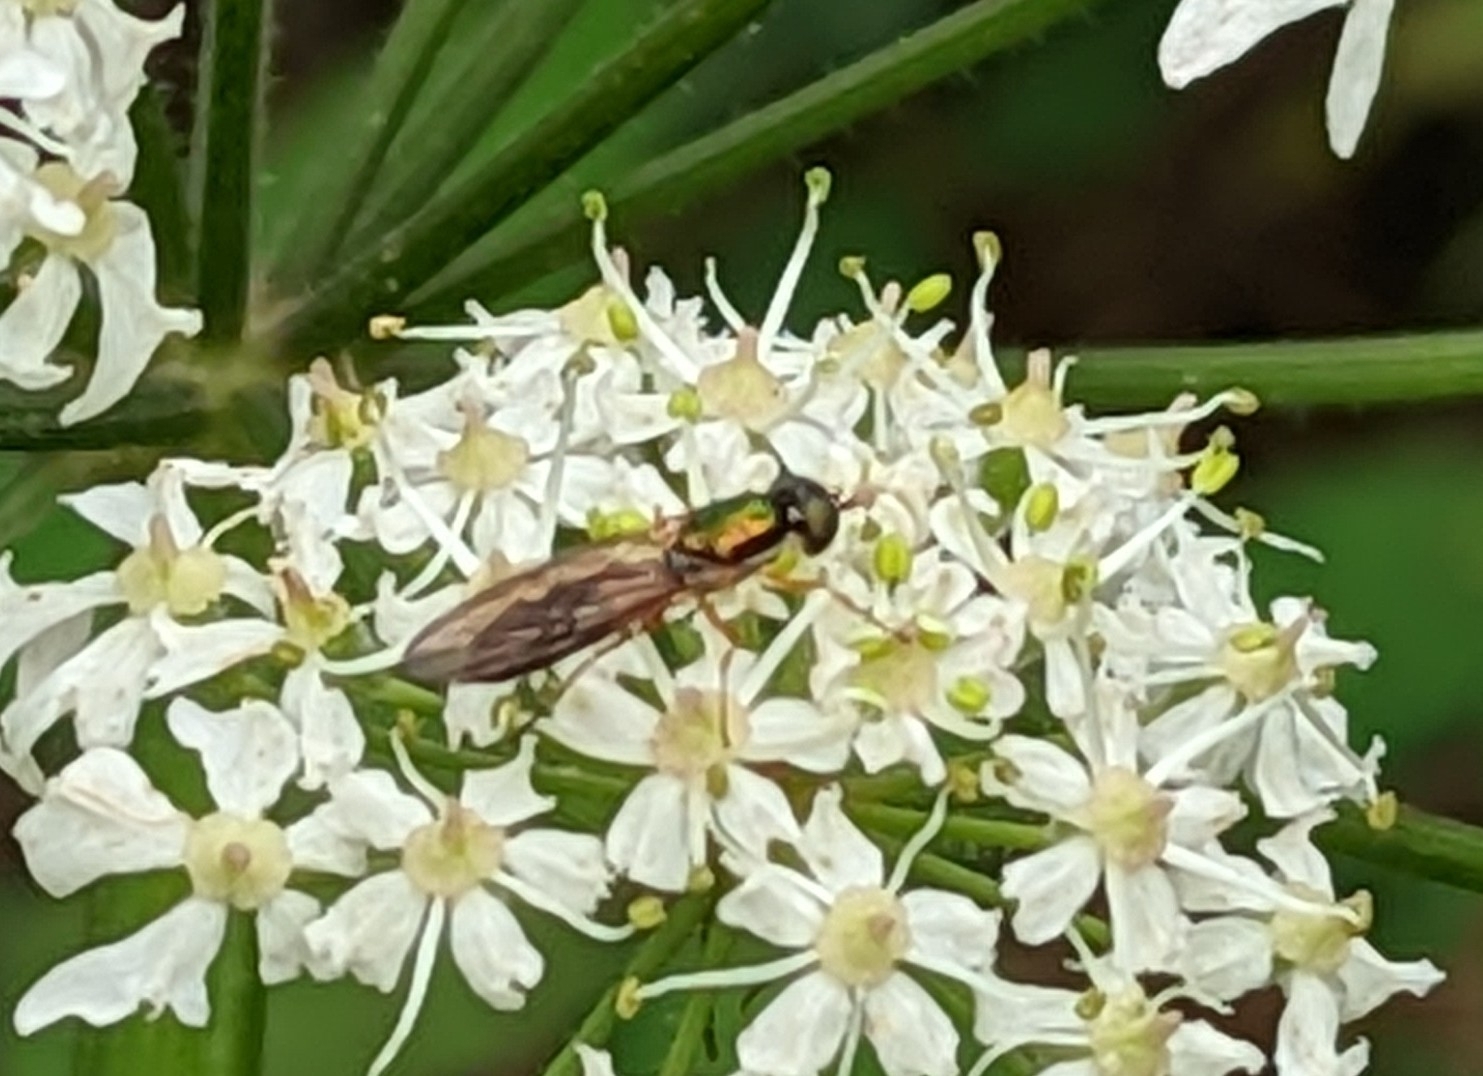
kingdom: Animalia
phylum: Arthropoda
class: Insecta
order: Diptera
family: Stratiomyidae
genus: Sargus
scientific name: Sargus bipunctatus
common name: Twin-spot centurion
